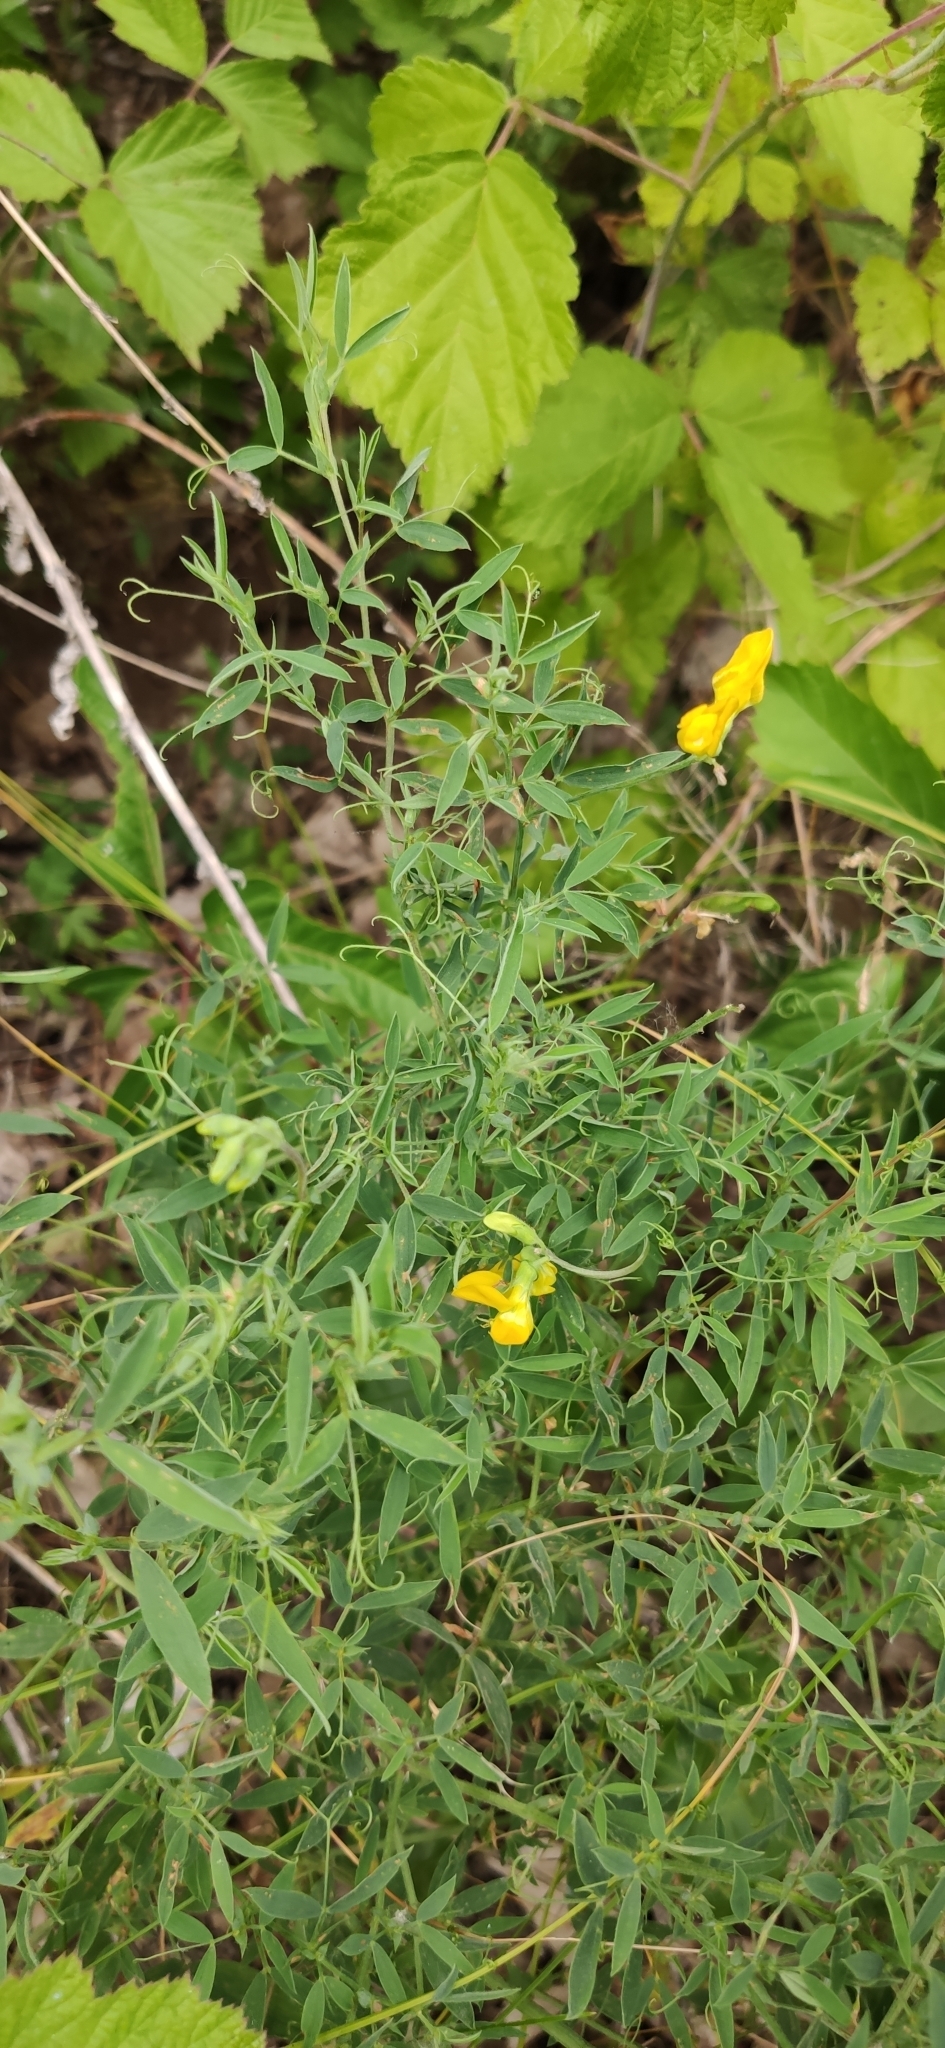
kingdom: Plantae
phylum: Tracheophyta
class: Magnoliopsida
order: Fabales
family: Fabaceae
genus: Lathyrus
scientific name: Lathyrus pratensis
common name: Meadow vetchling
